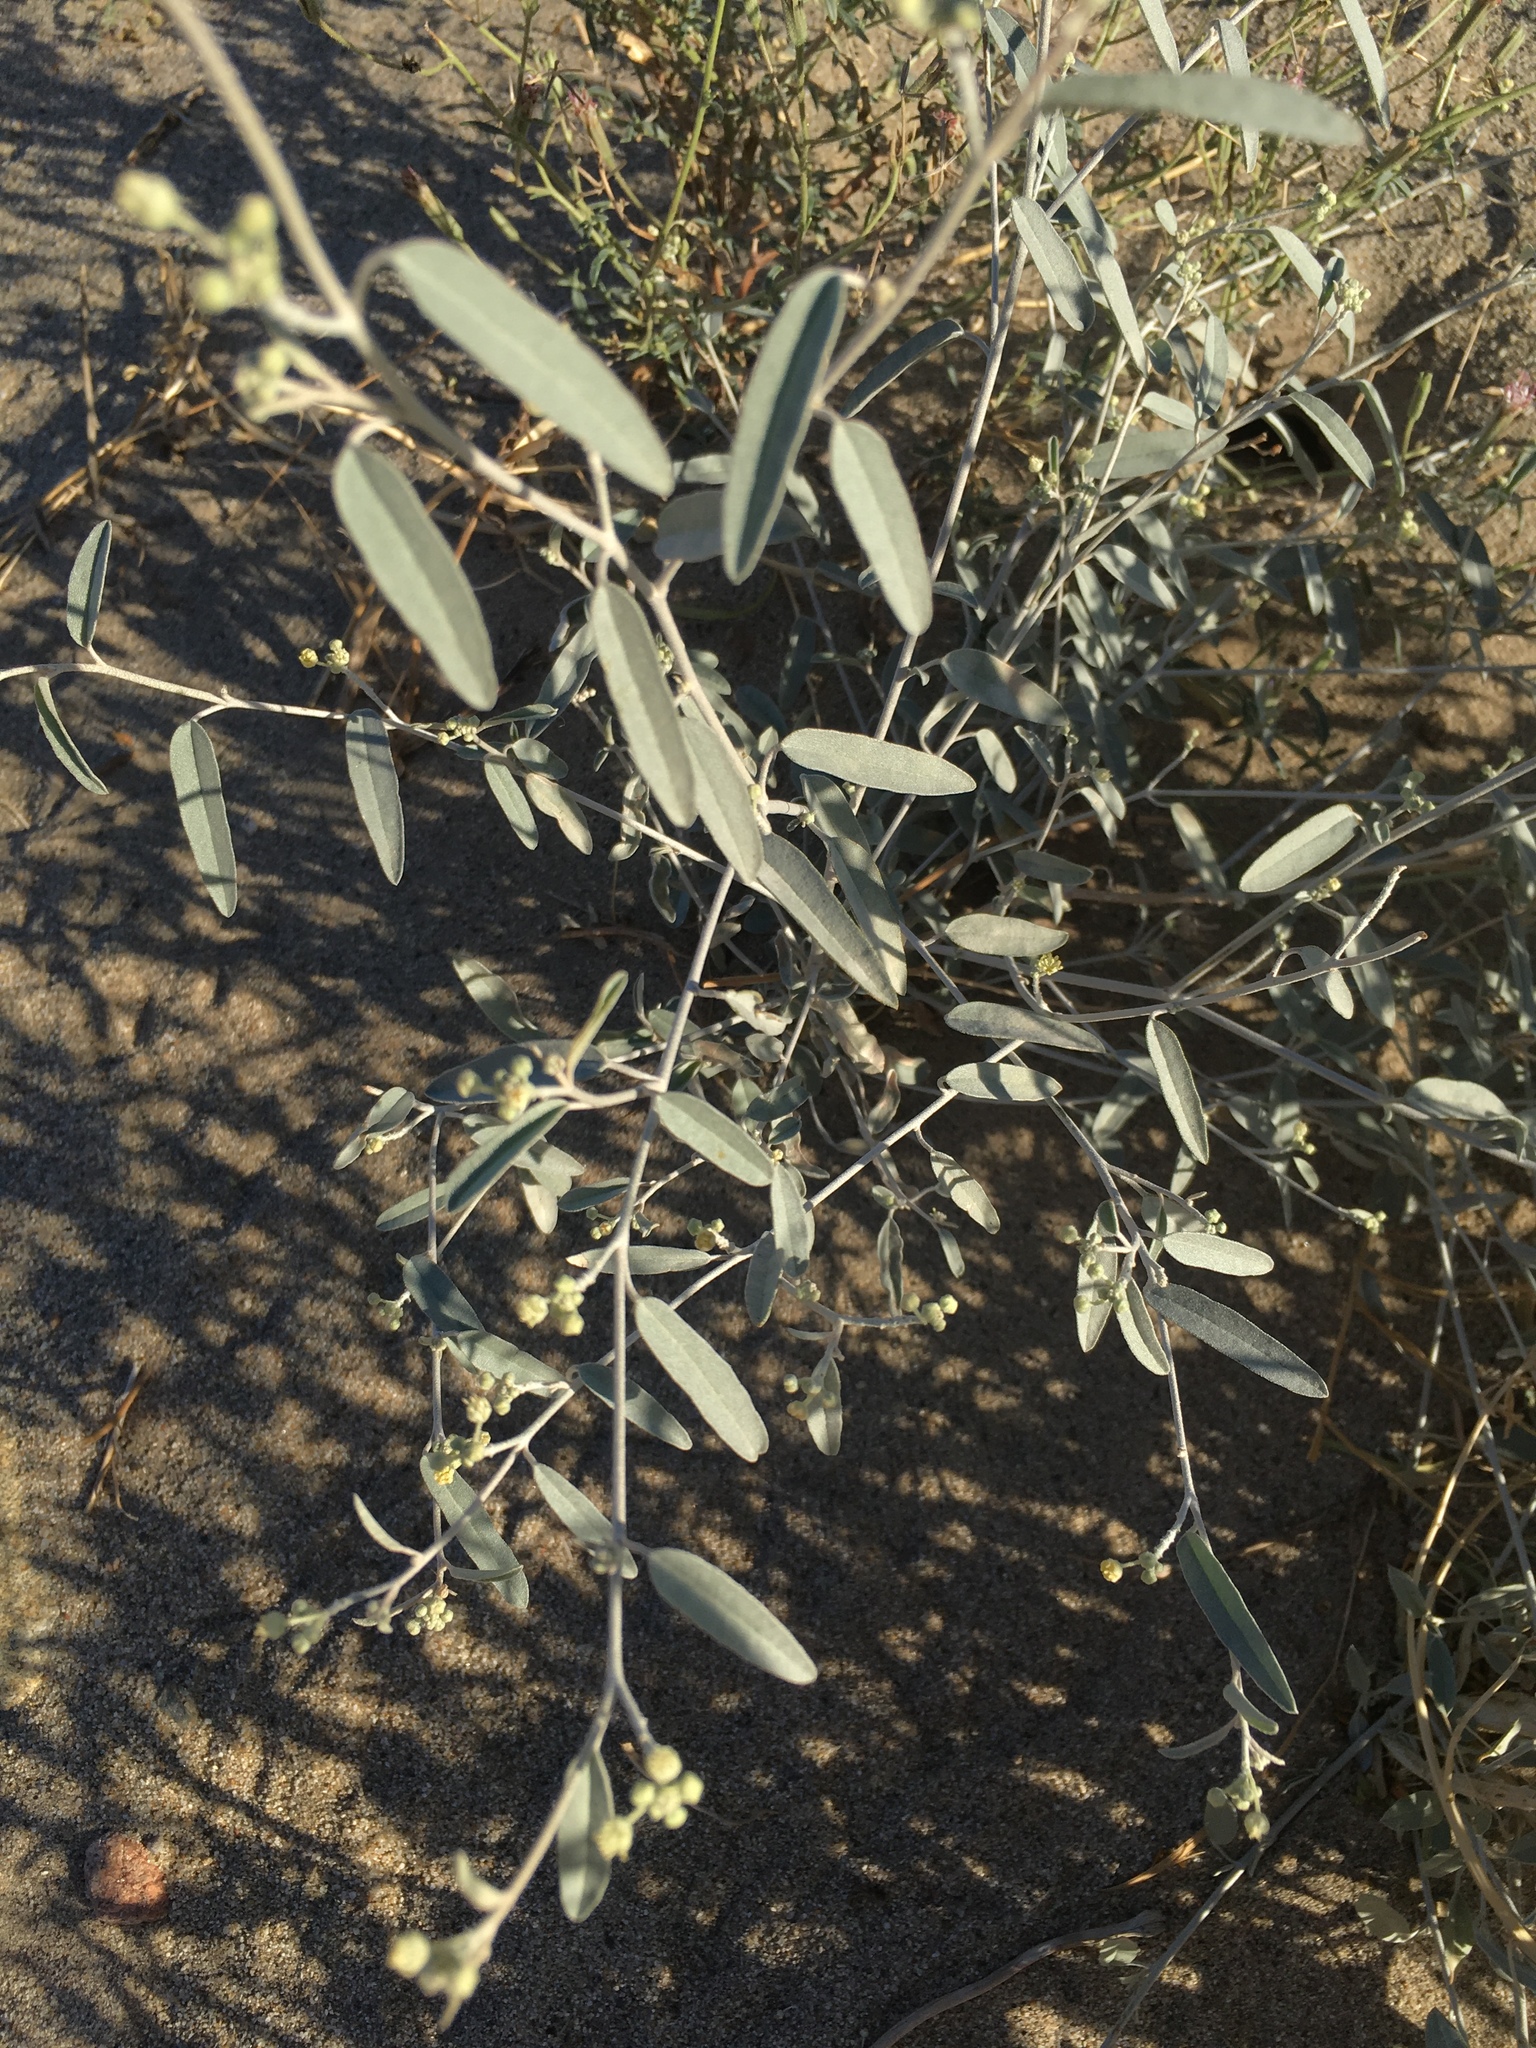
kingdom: Plantae
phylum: Tracheophyta
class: Magnoliopsida
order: Malpighiales
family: Euphorbiaceae
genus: Croton
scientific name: Croton californicus
